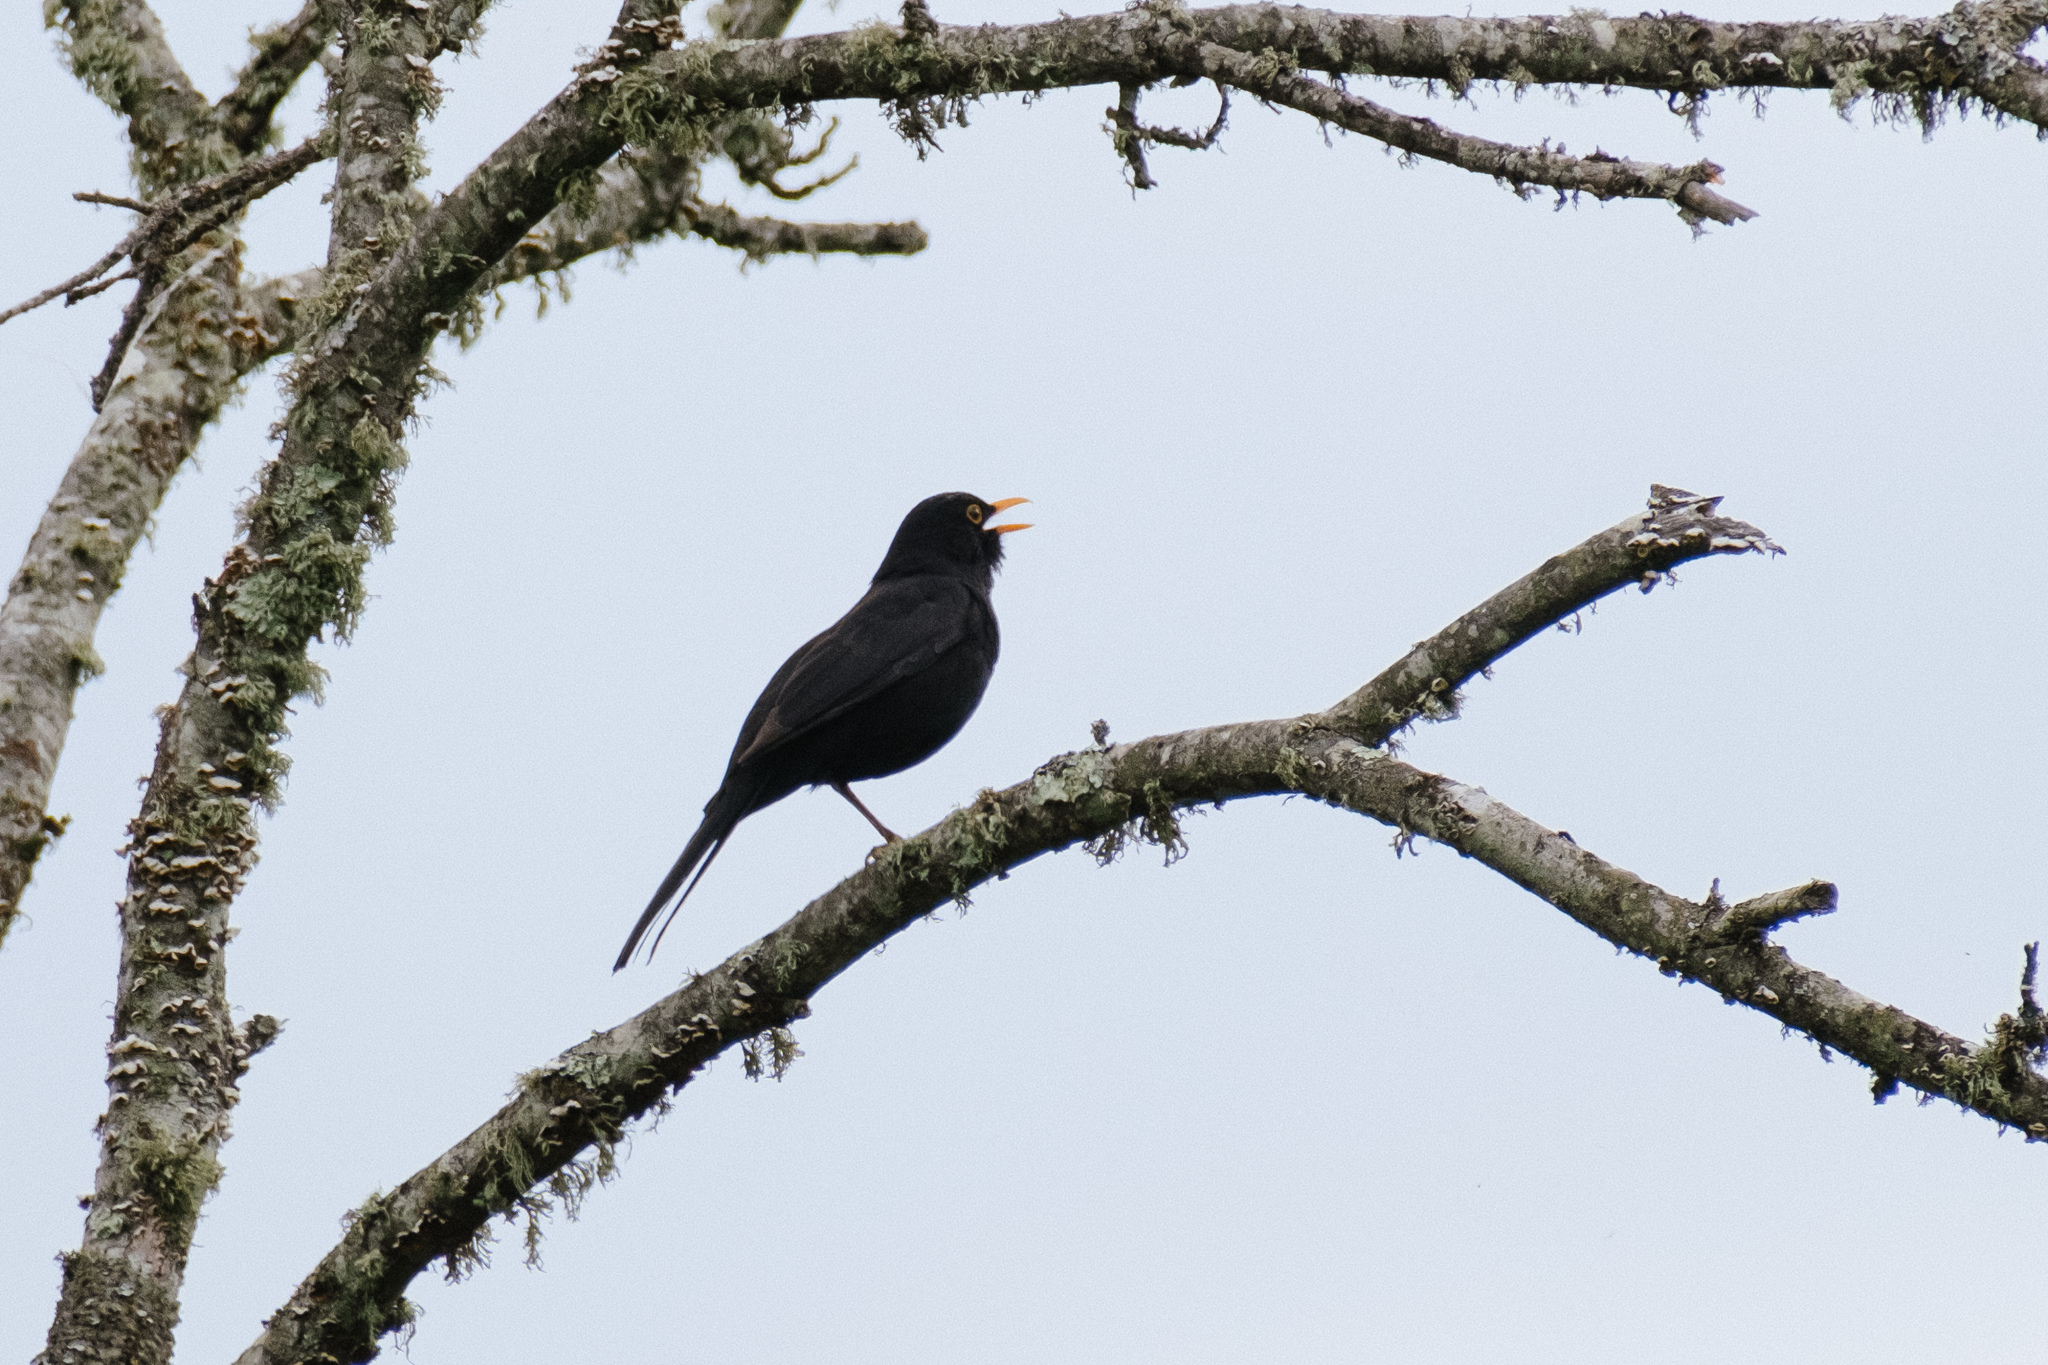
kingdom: Animalia
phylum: Chordata
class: Aves
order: Passeriformes
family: Turdidae
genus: Turdus
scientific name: Turdus merula
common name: Common blackbird
